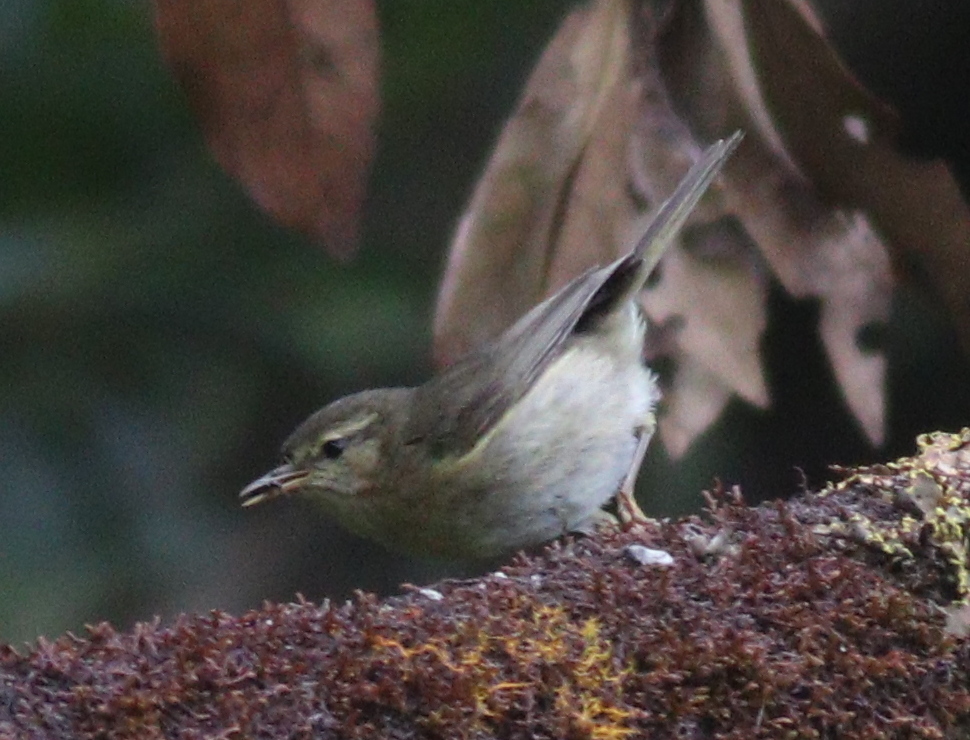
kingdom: Animalia
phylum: Chordata
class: Aves
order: Passeriformes
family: Phylloscopidae
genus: Phylloscopus
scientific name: Phylloscopus canariensis
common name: Canary islands chiffchaff
